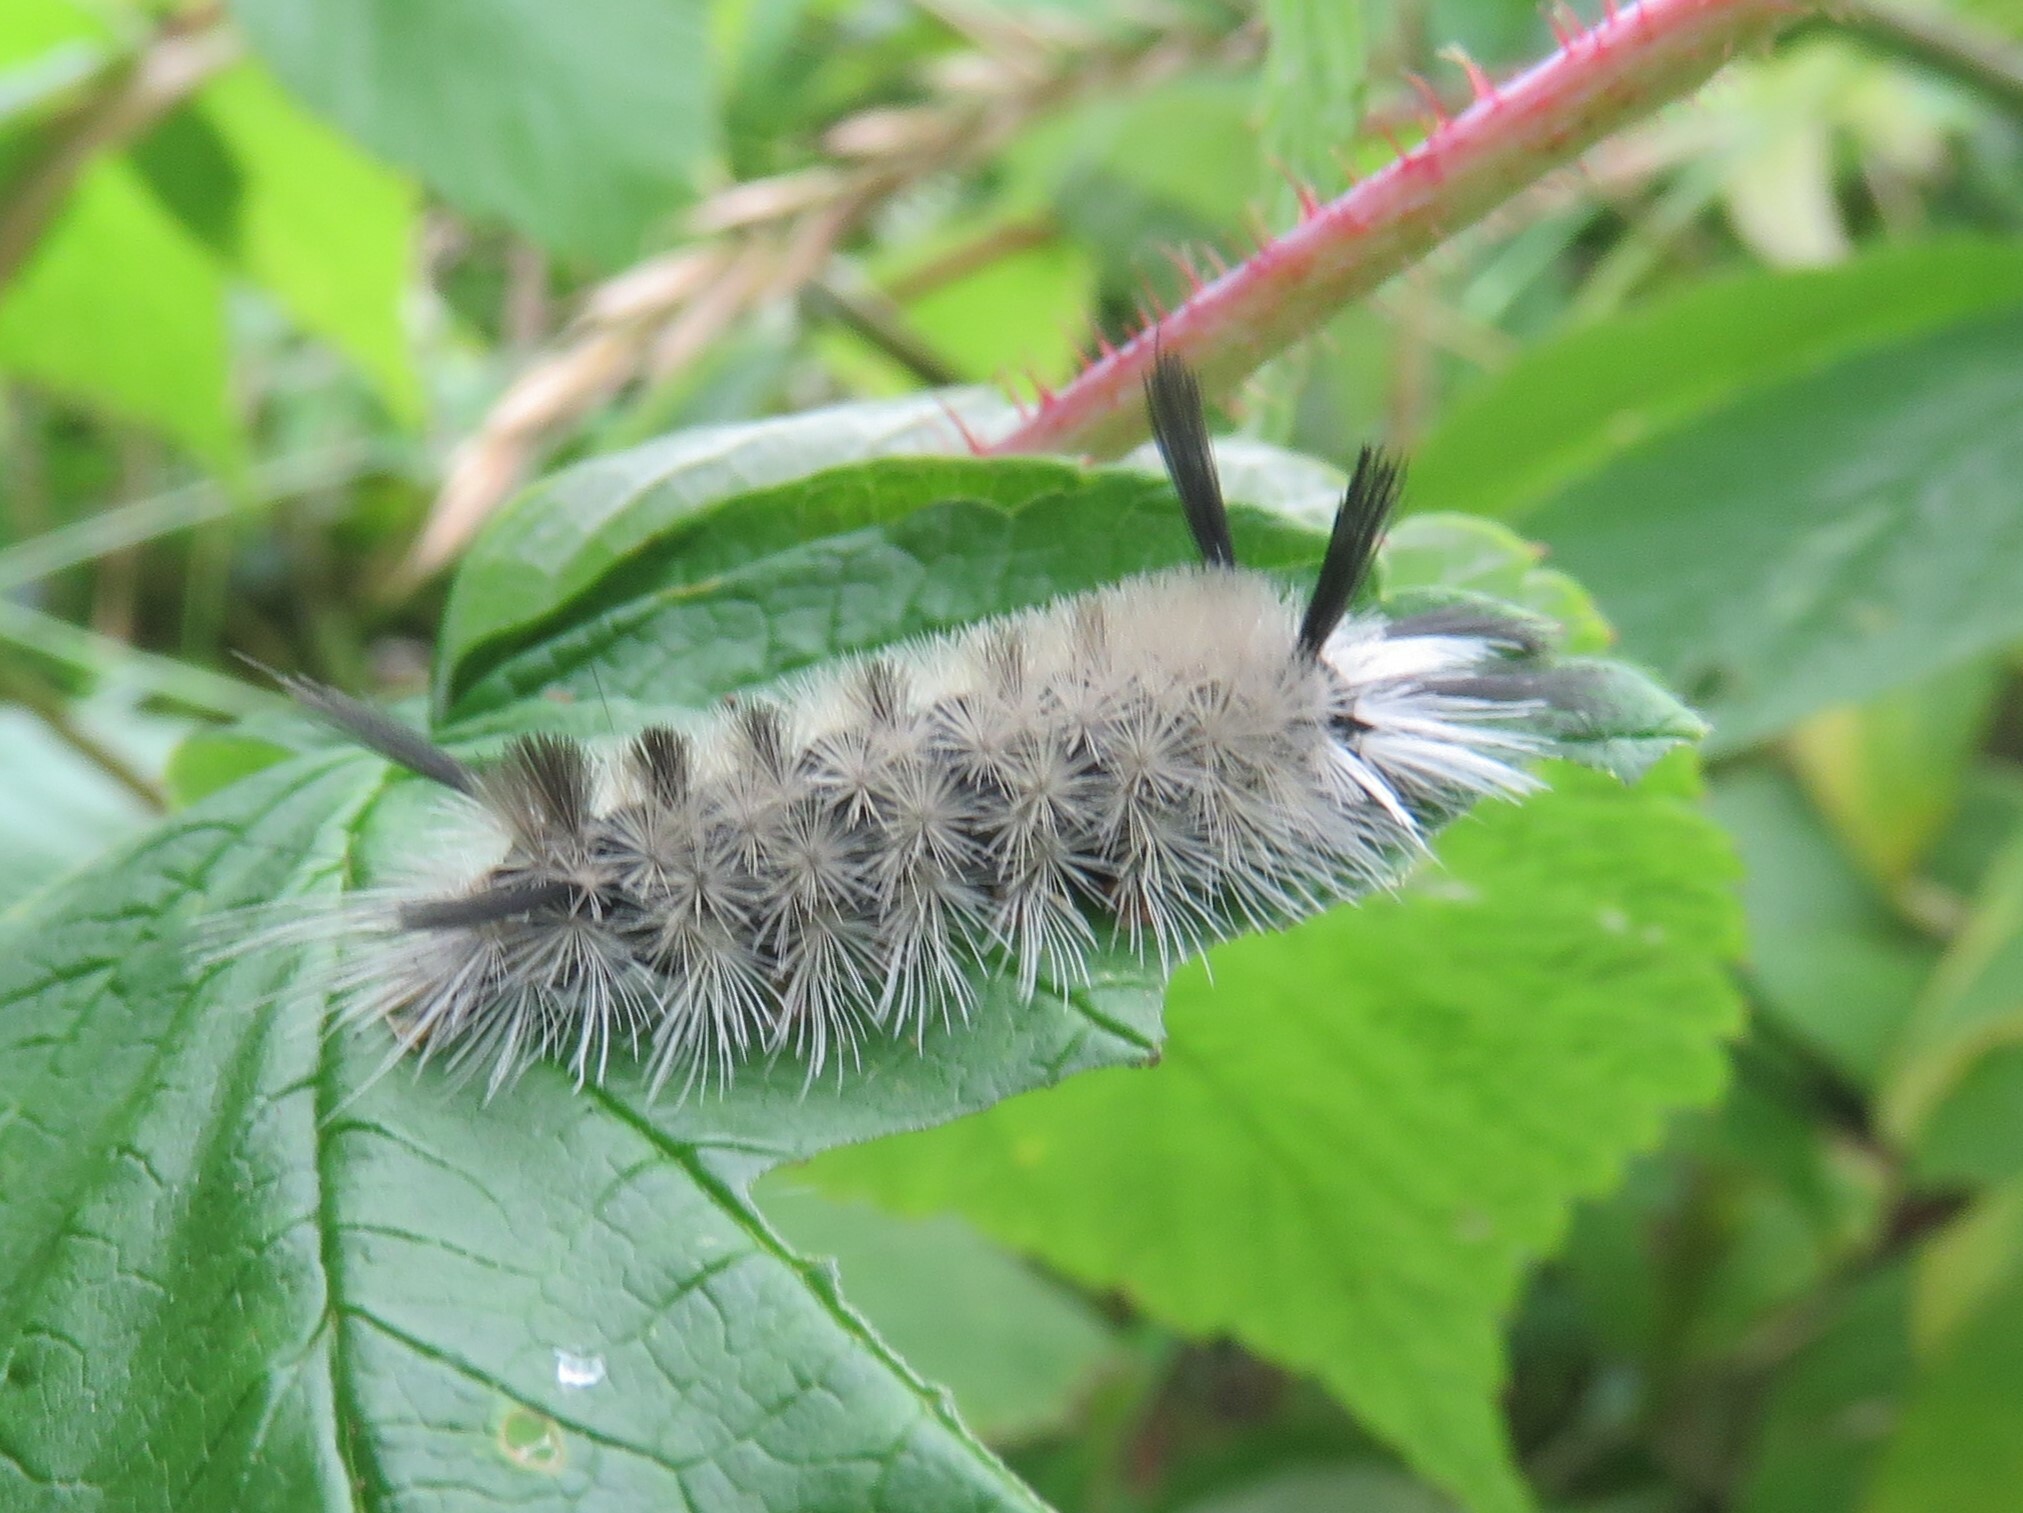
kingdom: Animalia
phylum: Arthropoda
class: Insecta
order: Lepidoptera
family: Erebidae
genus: Halysidota
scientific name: Halysidota tessellaris
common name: Banded tussock moth
